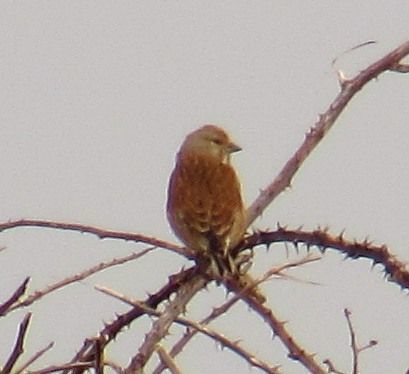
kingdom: Animalia
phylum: Chordata
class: Aves
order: Passeriformes
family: Fringillidae
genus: Linaria
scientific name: Linaria cannabina
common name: Common linnet
